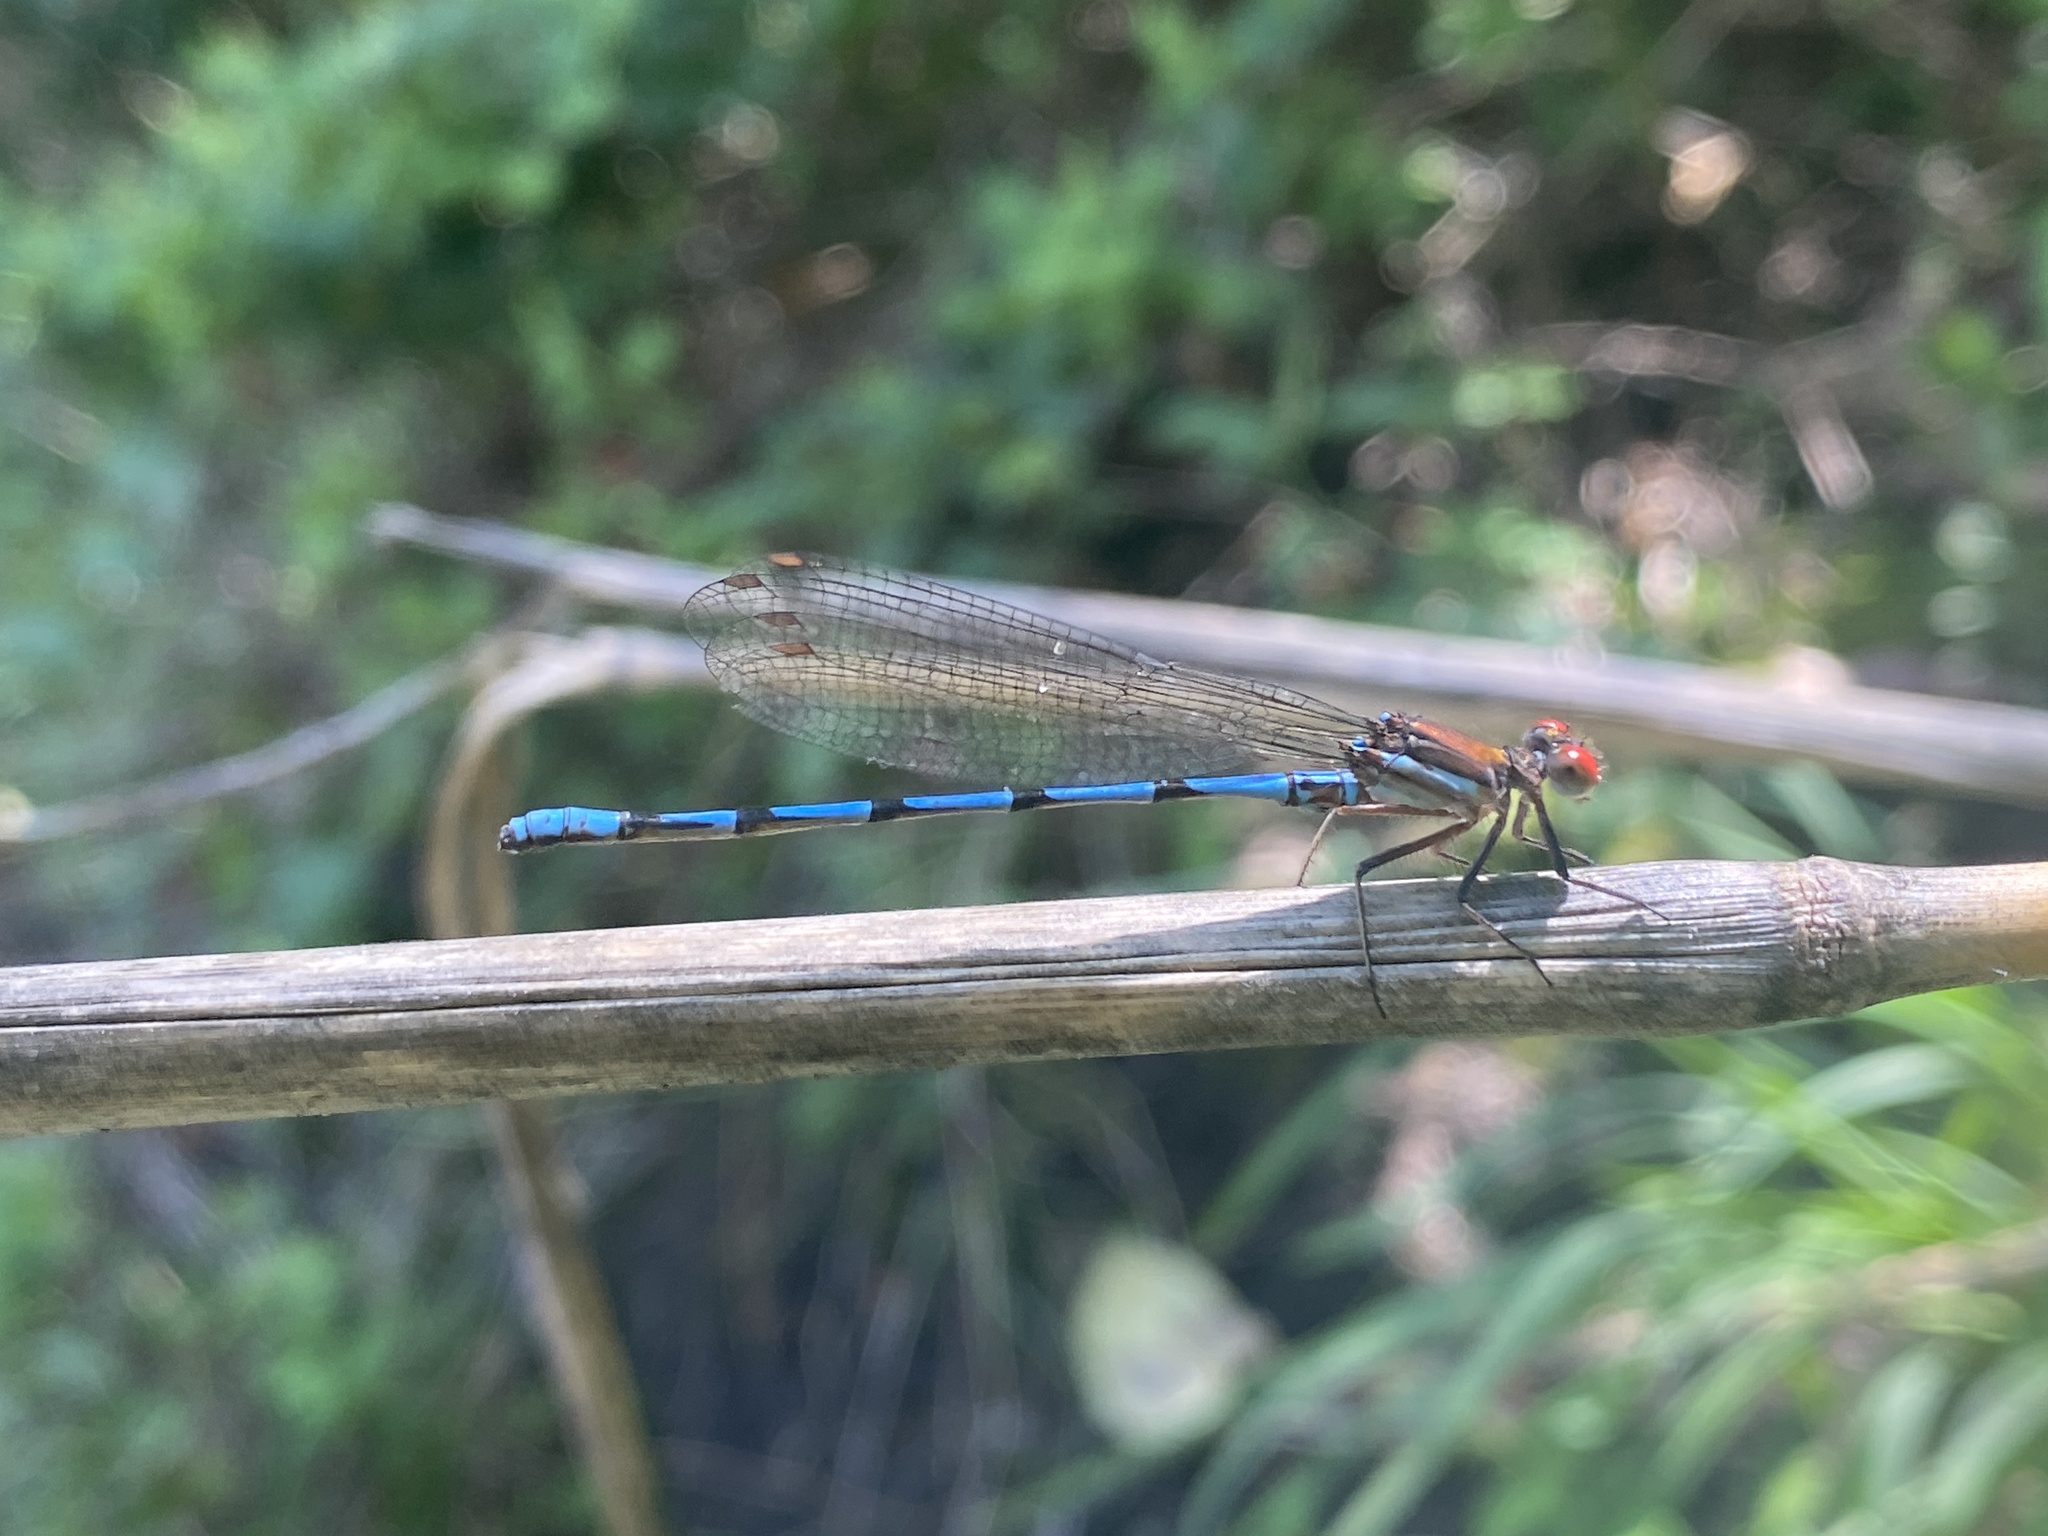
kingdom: Animalia
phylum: Arthropoda
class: Insecta
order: Odonata
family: Coenagrionidae
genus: Argia
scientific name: Argia joergenseni
